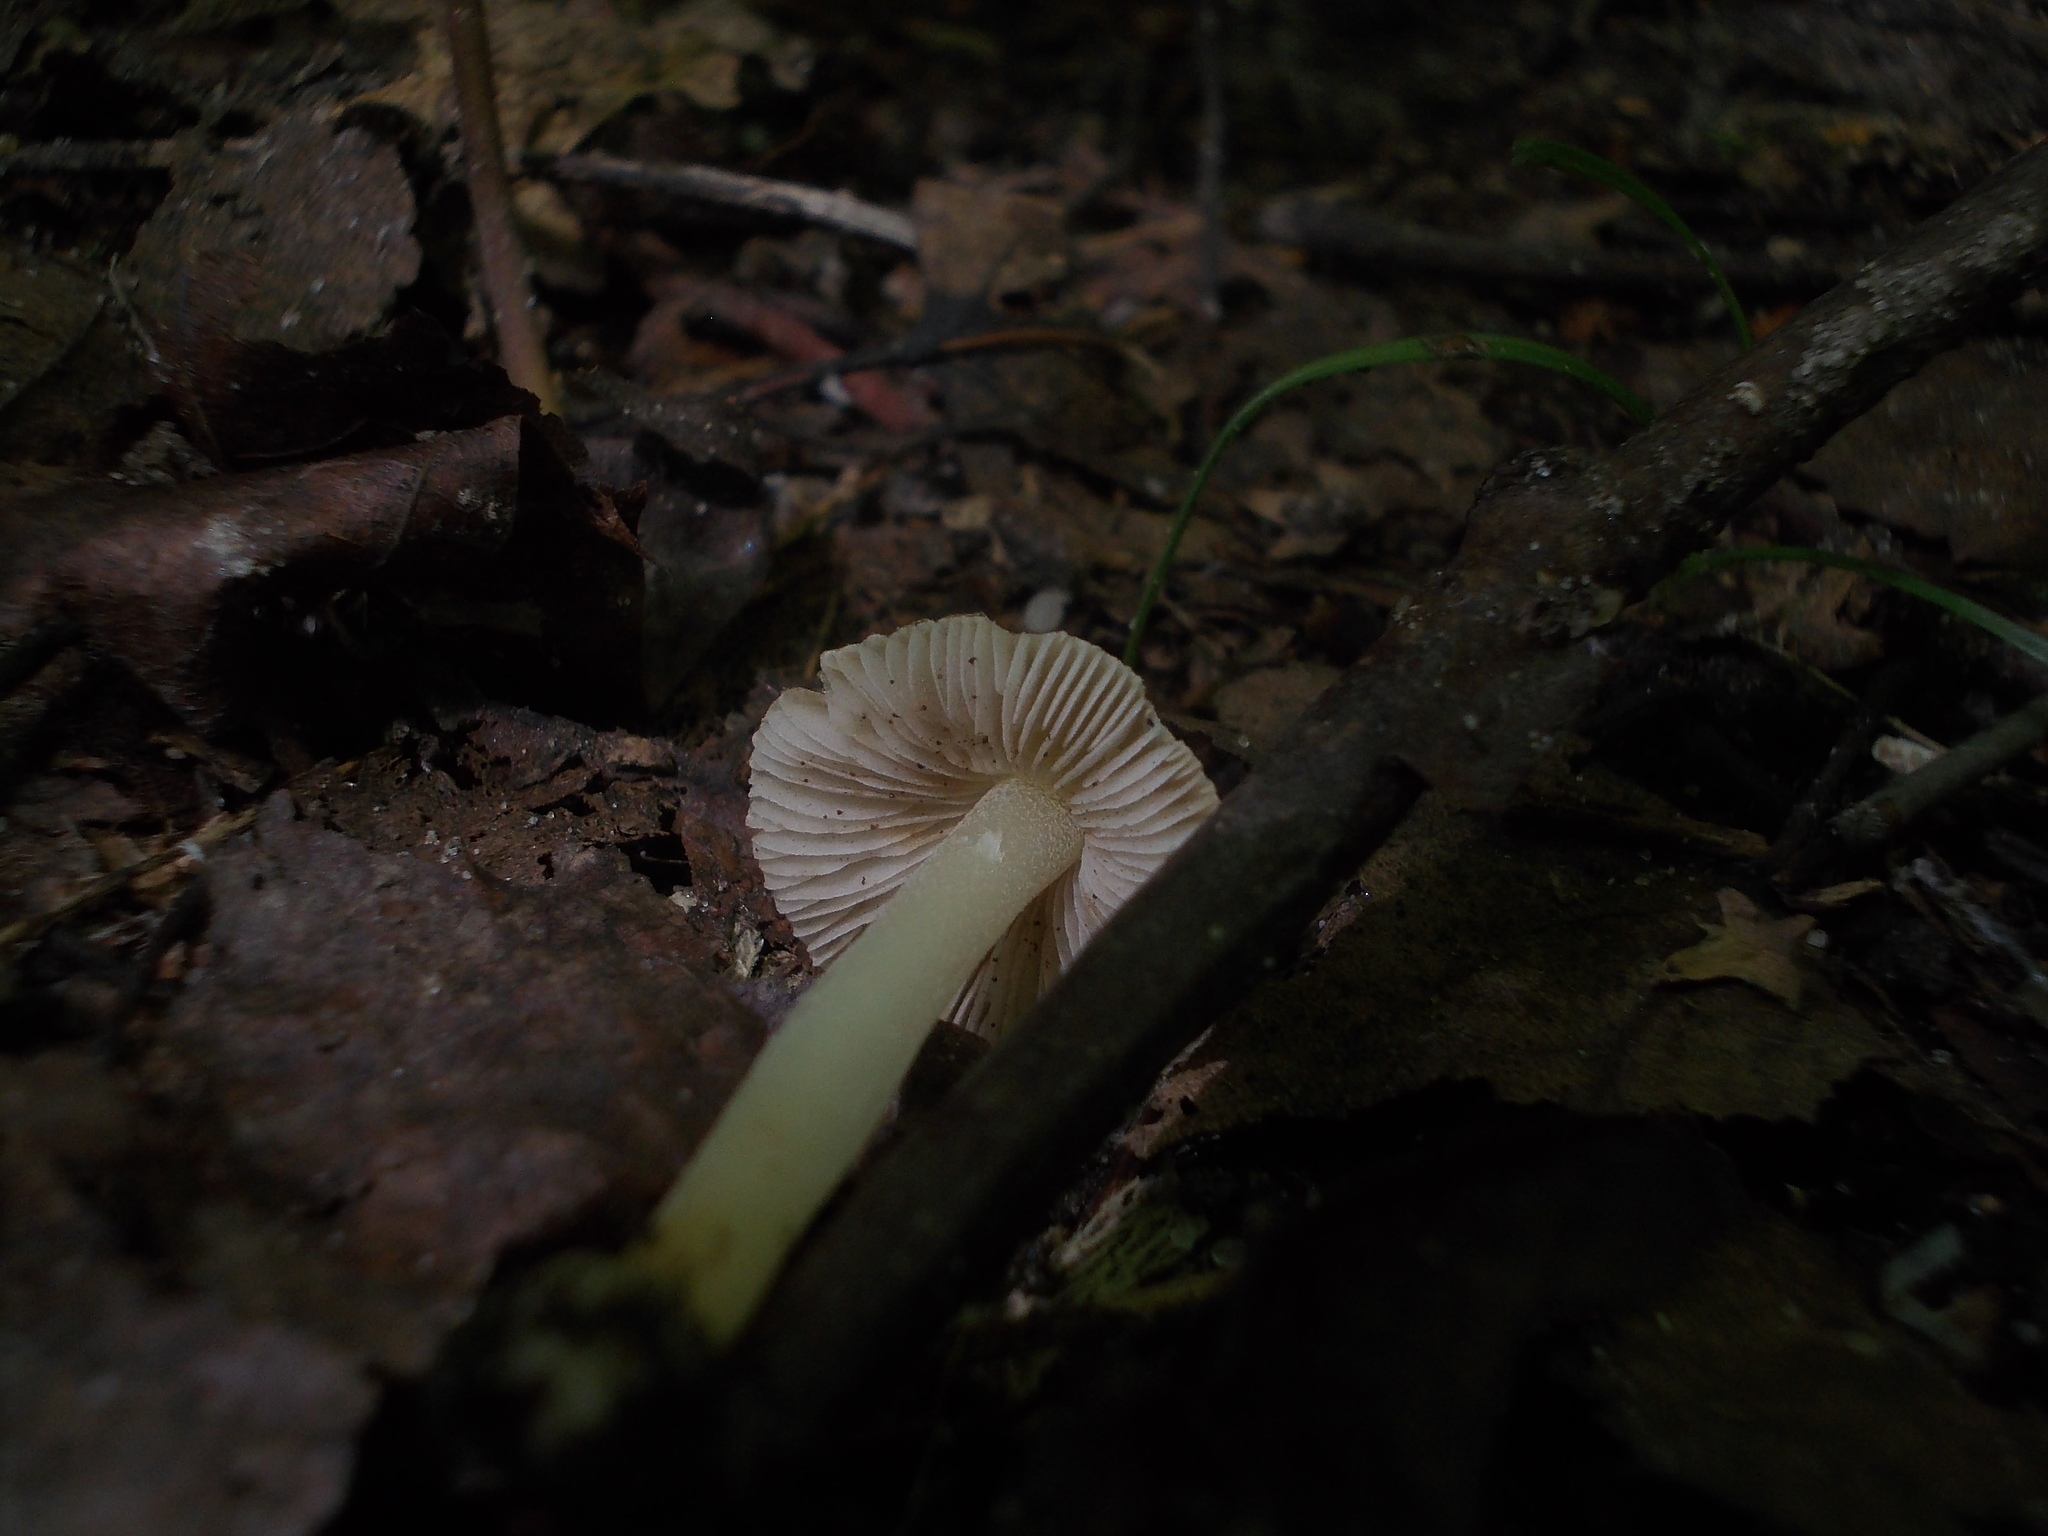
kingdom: Fungi
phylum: Basidiomycota
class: Agaricomycetes
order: Agaricales
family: Inocybaceae
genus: Inocybe
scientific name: Inocybe mixtilis
